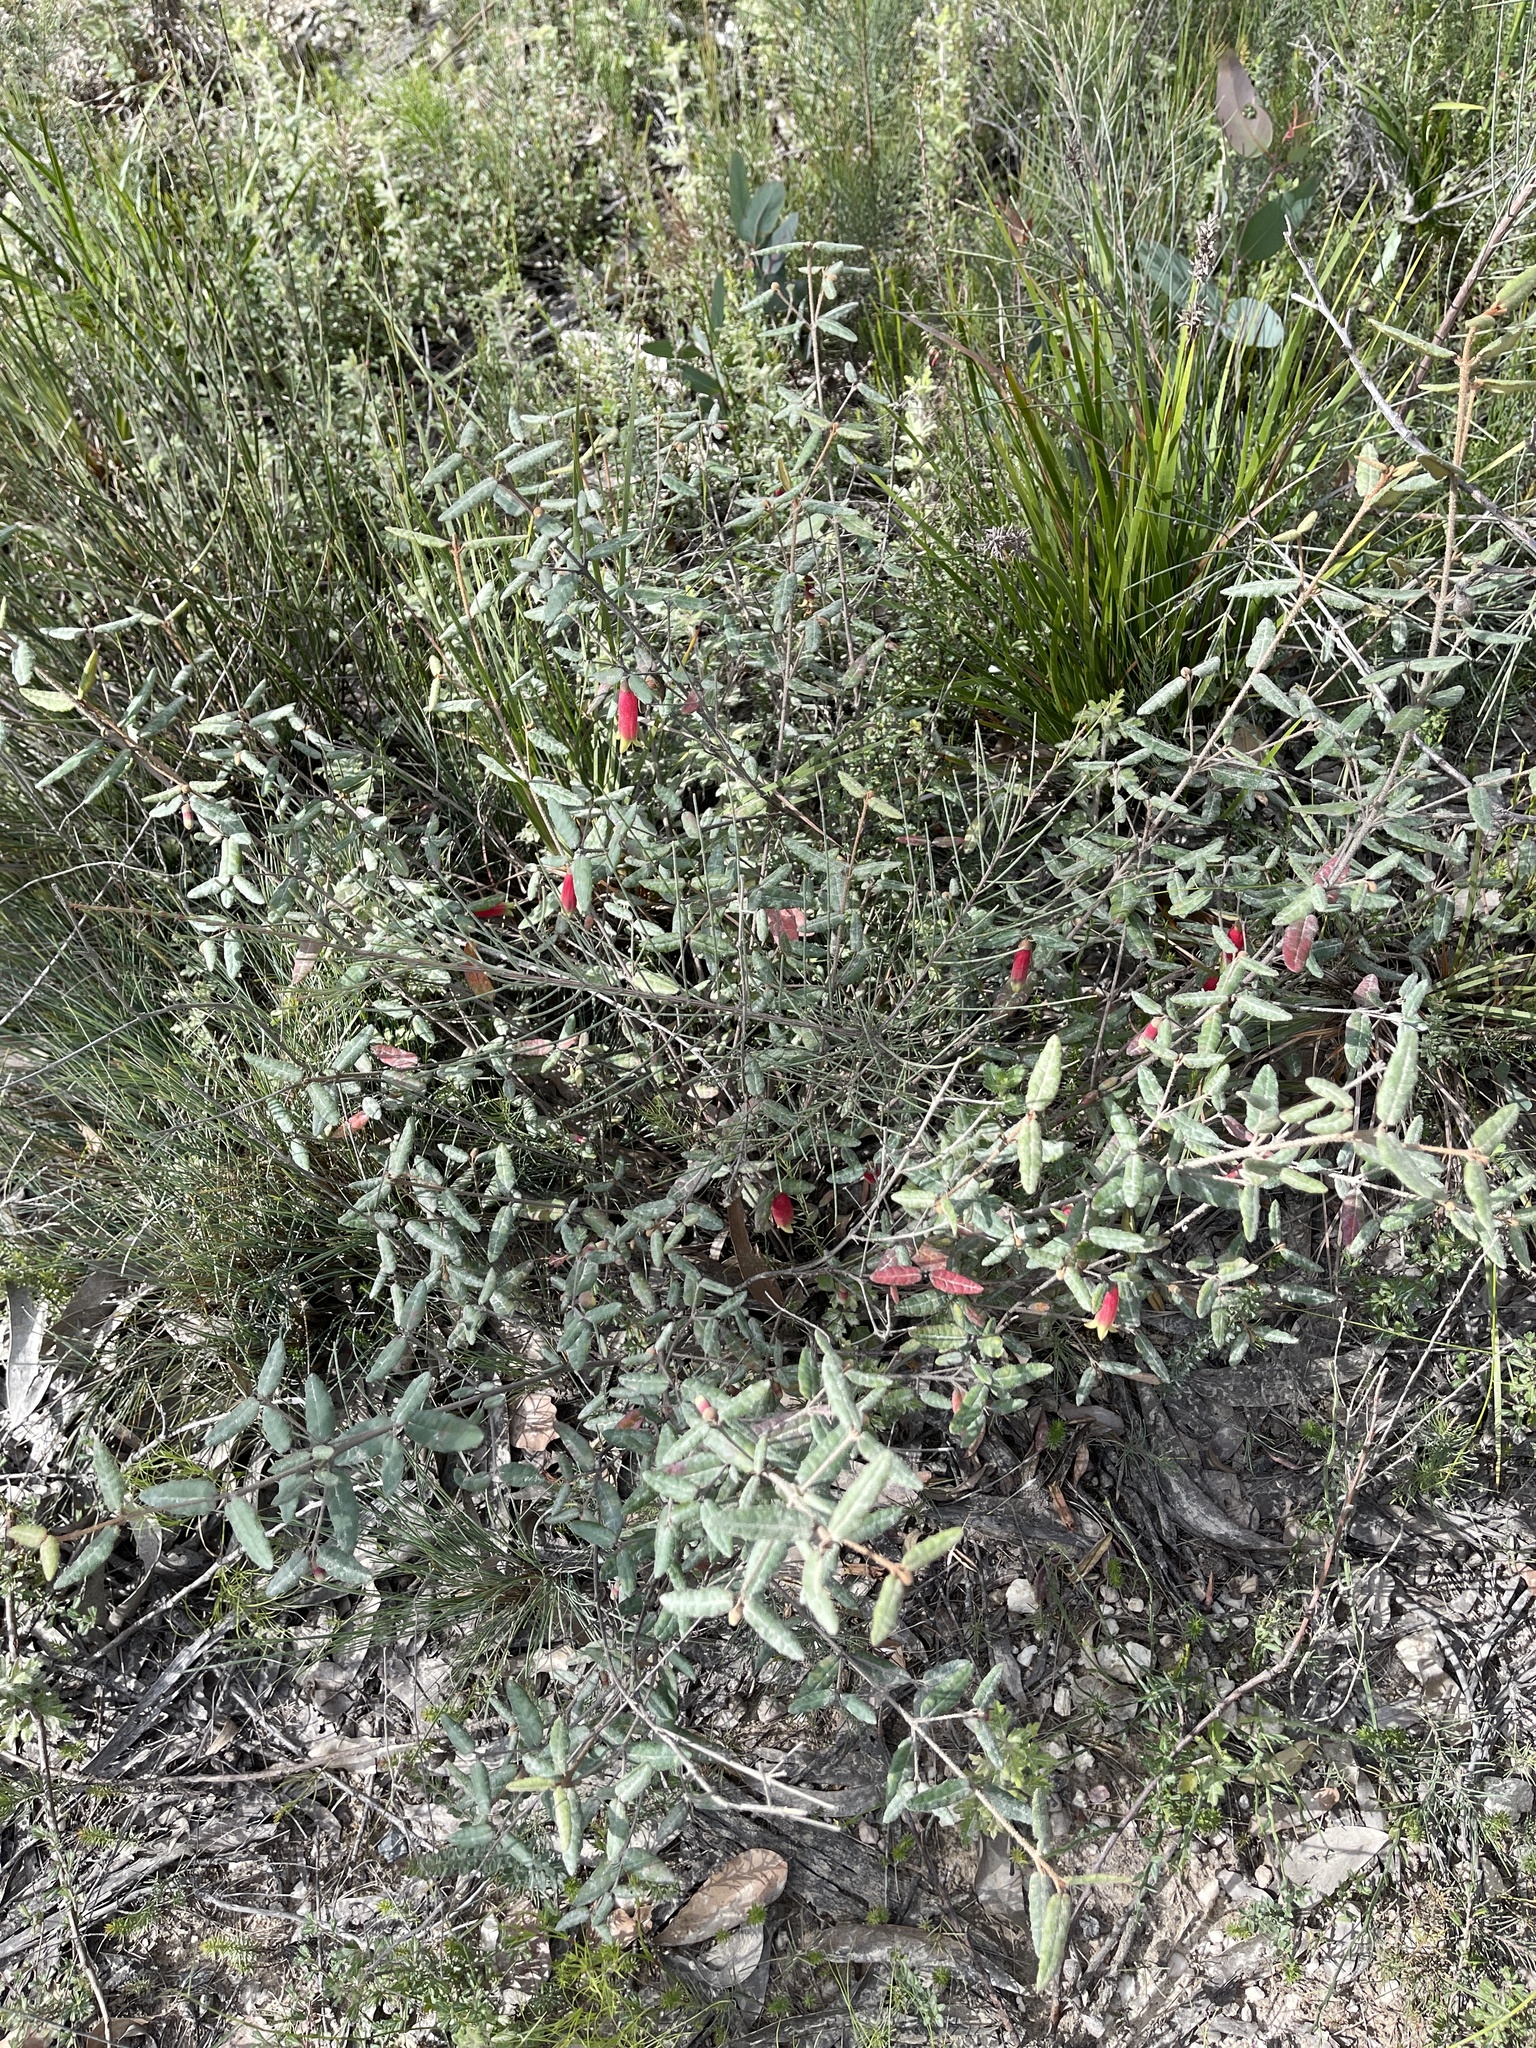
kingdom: Plantae
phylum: Tracheophyta
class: Magnoliopsida
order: Sapindales
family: Rutaceae
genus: Correa
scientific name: Correa reflexa
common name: Common correa
